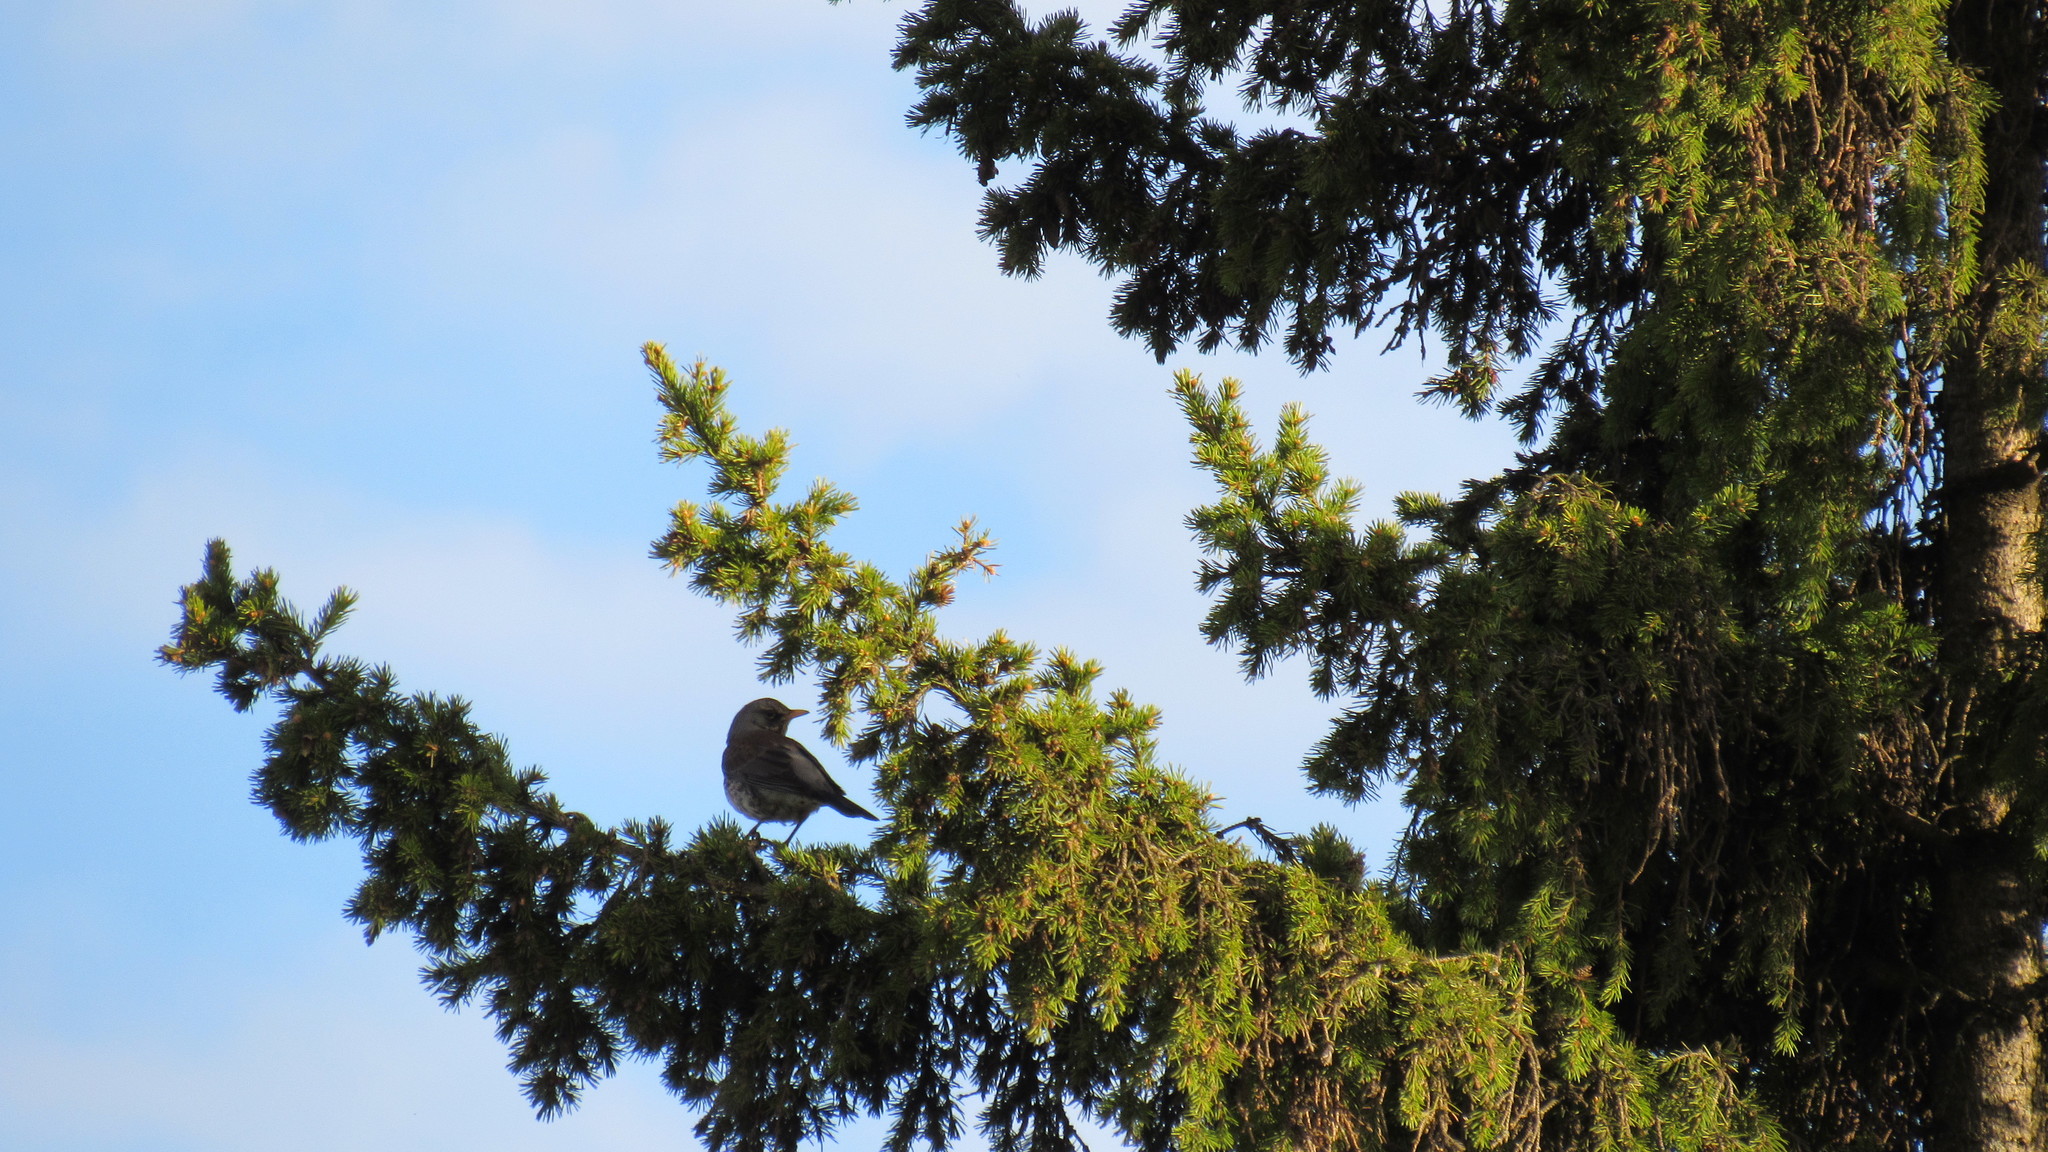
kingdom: Animalia
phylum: Chordata
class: Aves
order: Passeriformes
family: Turdidae
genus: Turdus
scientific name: Turdus pilaris
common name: Fieldfare
